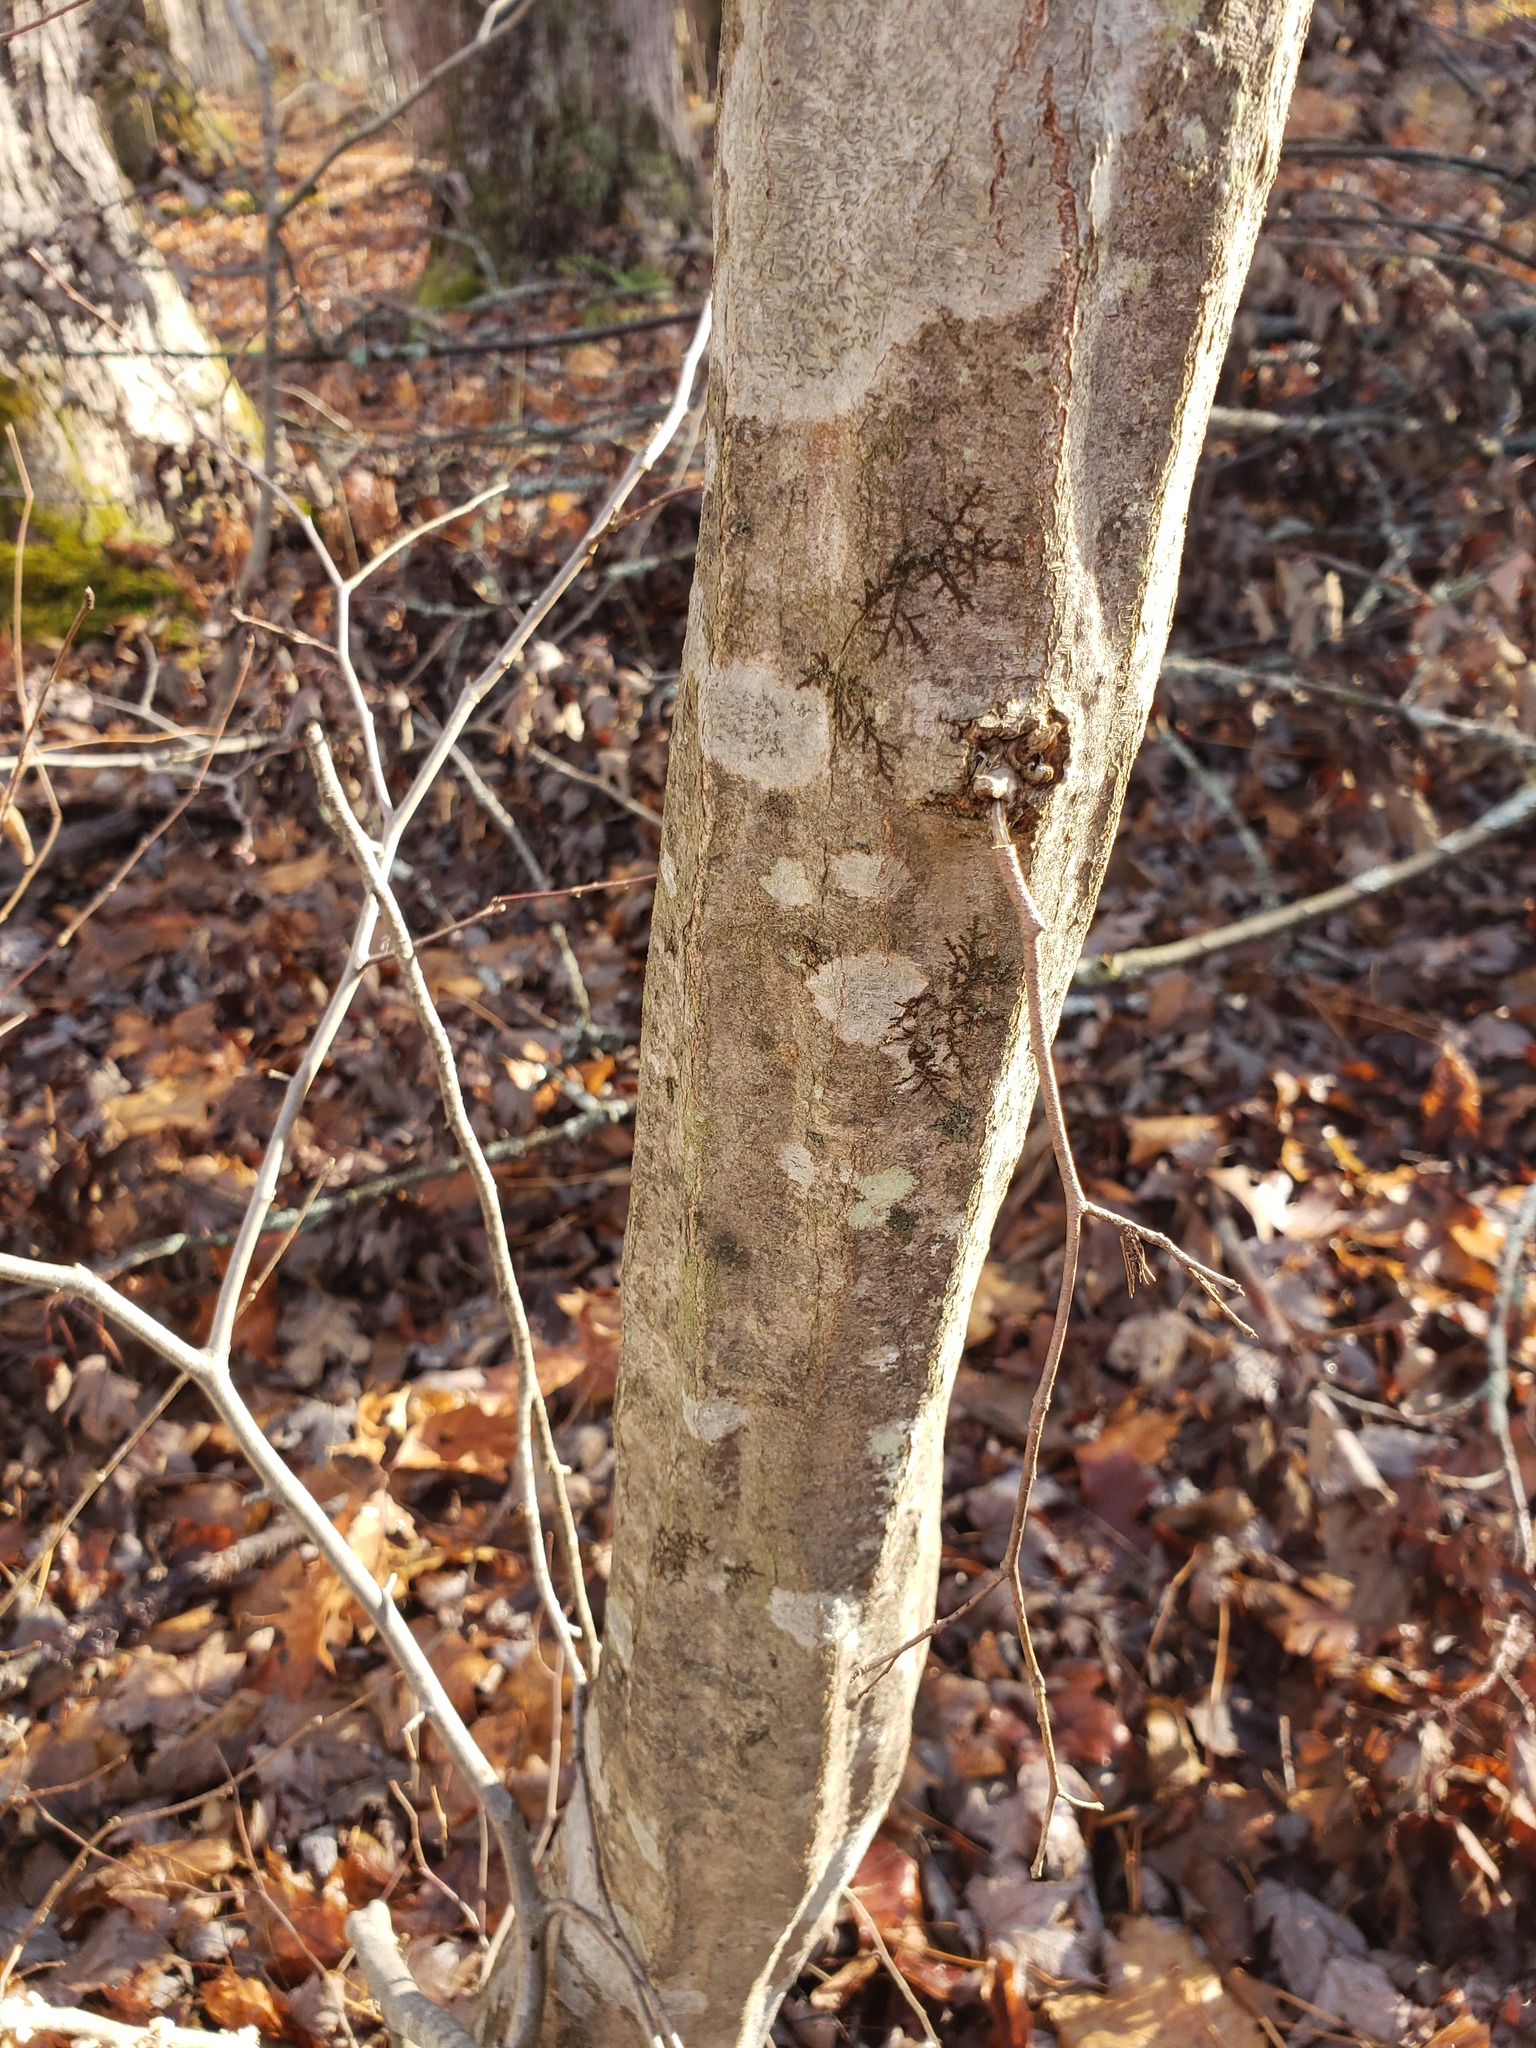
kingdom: Plantae
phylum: Tracheophyta
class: Magnoliopsida
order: Fagales
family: Betulaceae
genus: Carpinus
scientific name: Carpinus caroliniana
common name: American hornbeam
